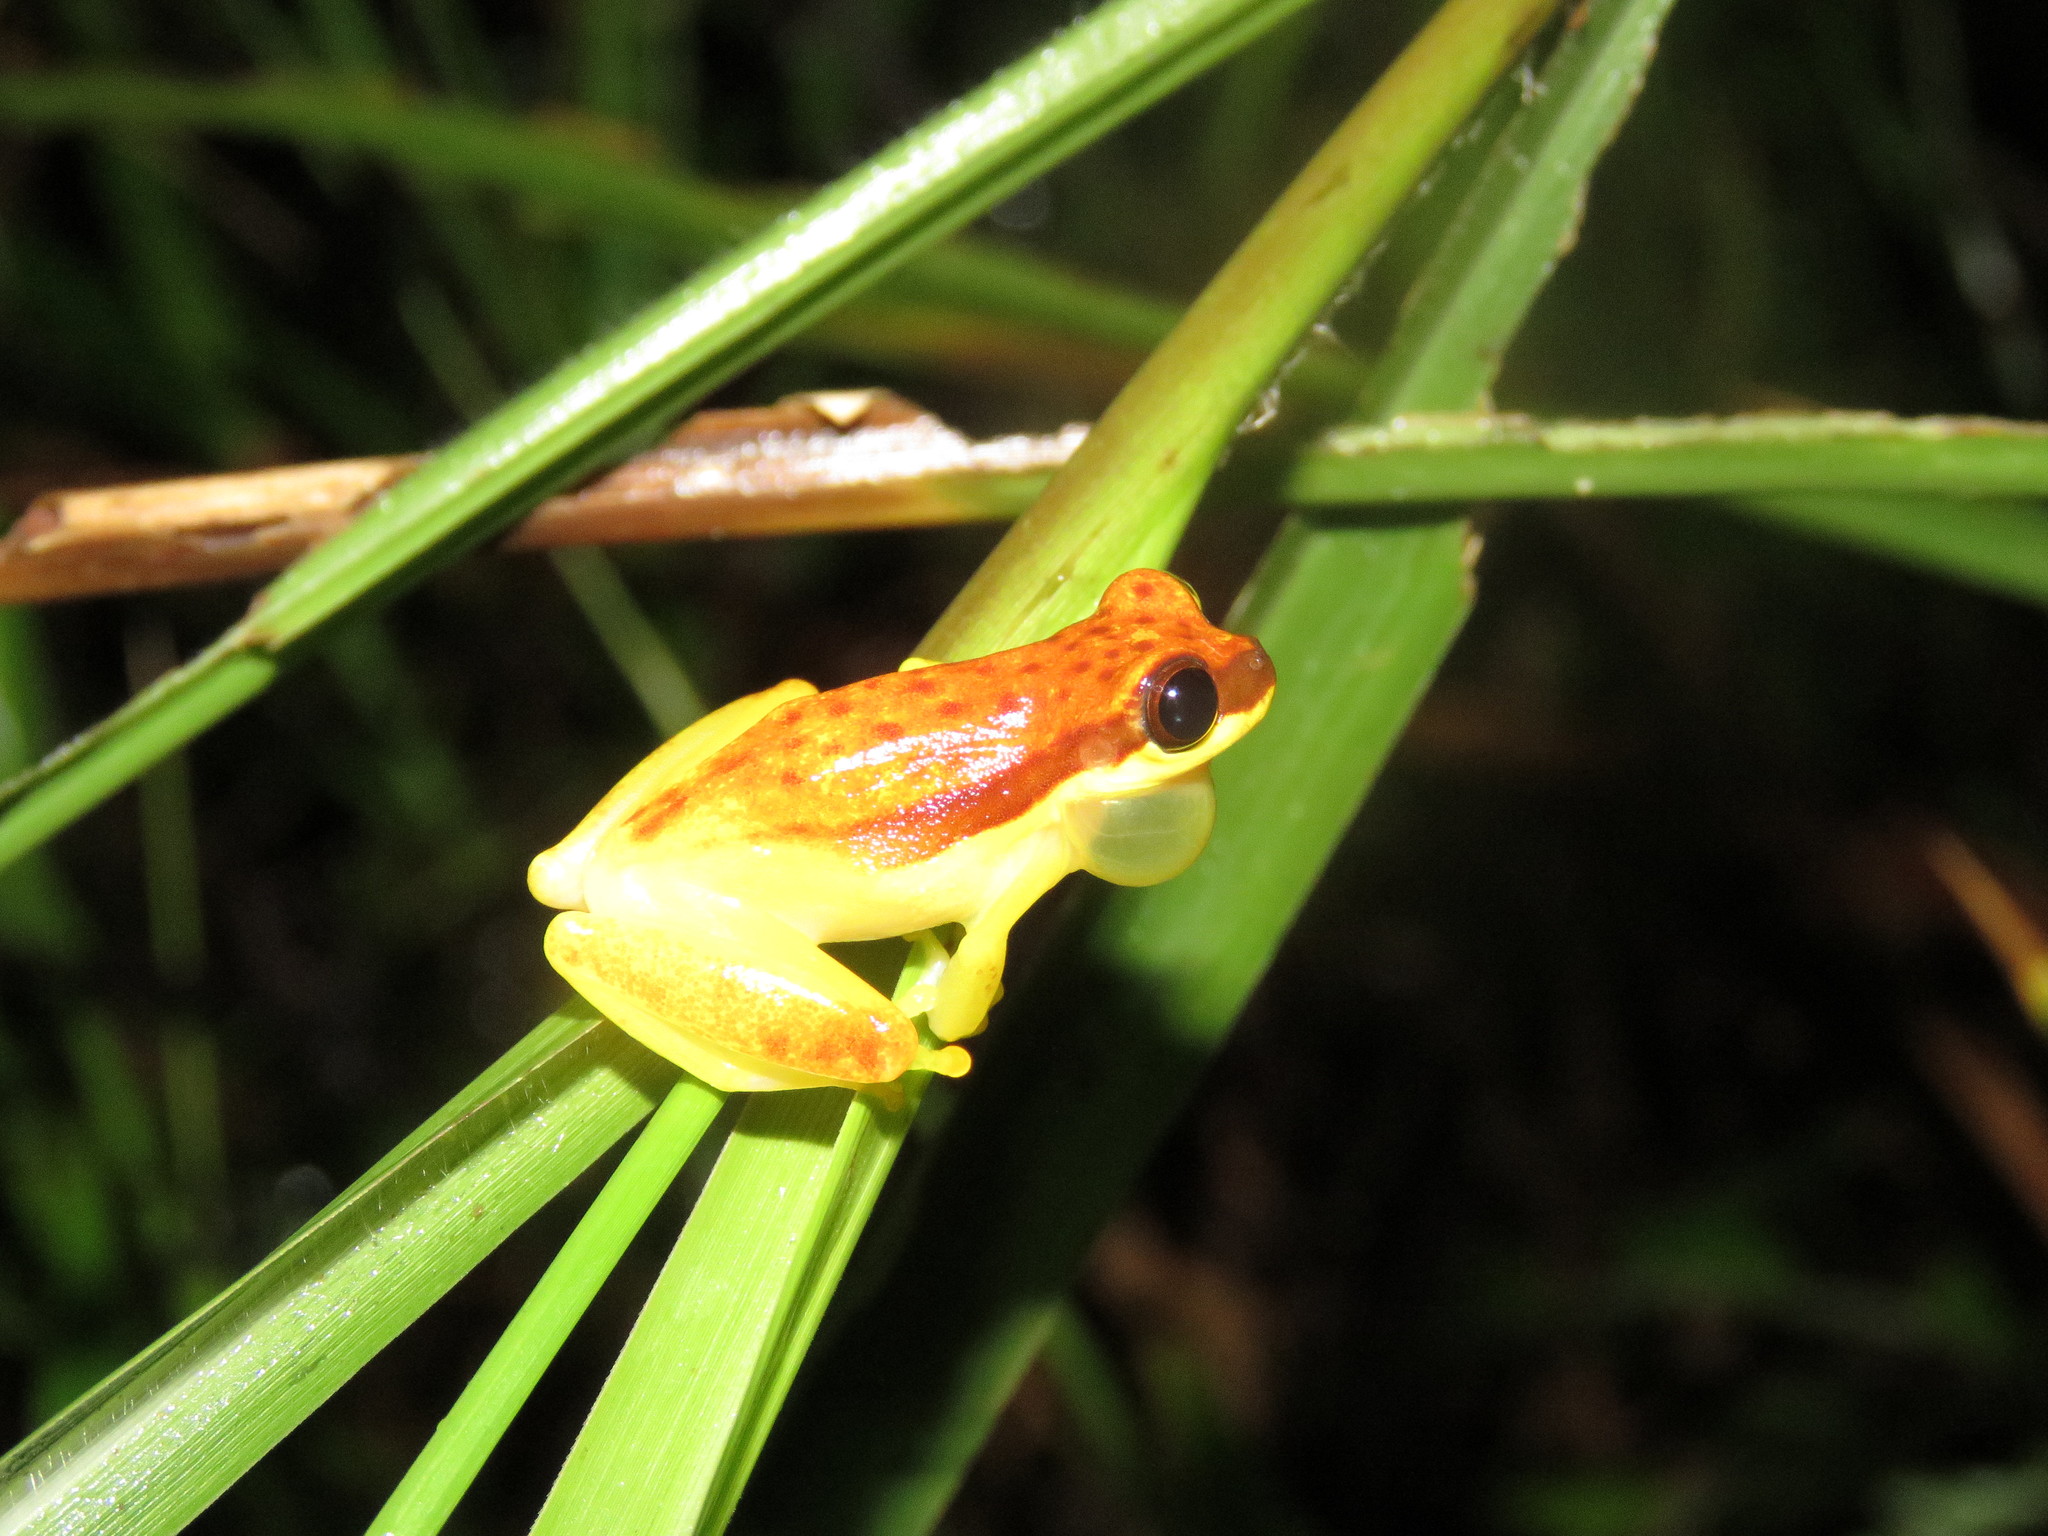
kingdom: Animalia
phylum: Chordata
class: Amphibia
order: Anura
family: Hylidae
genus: Dendropsophus
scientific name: Dendropsophus rhodopeplus
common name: Red-skirted treefrog
